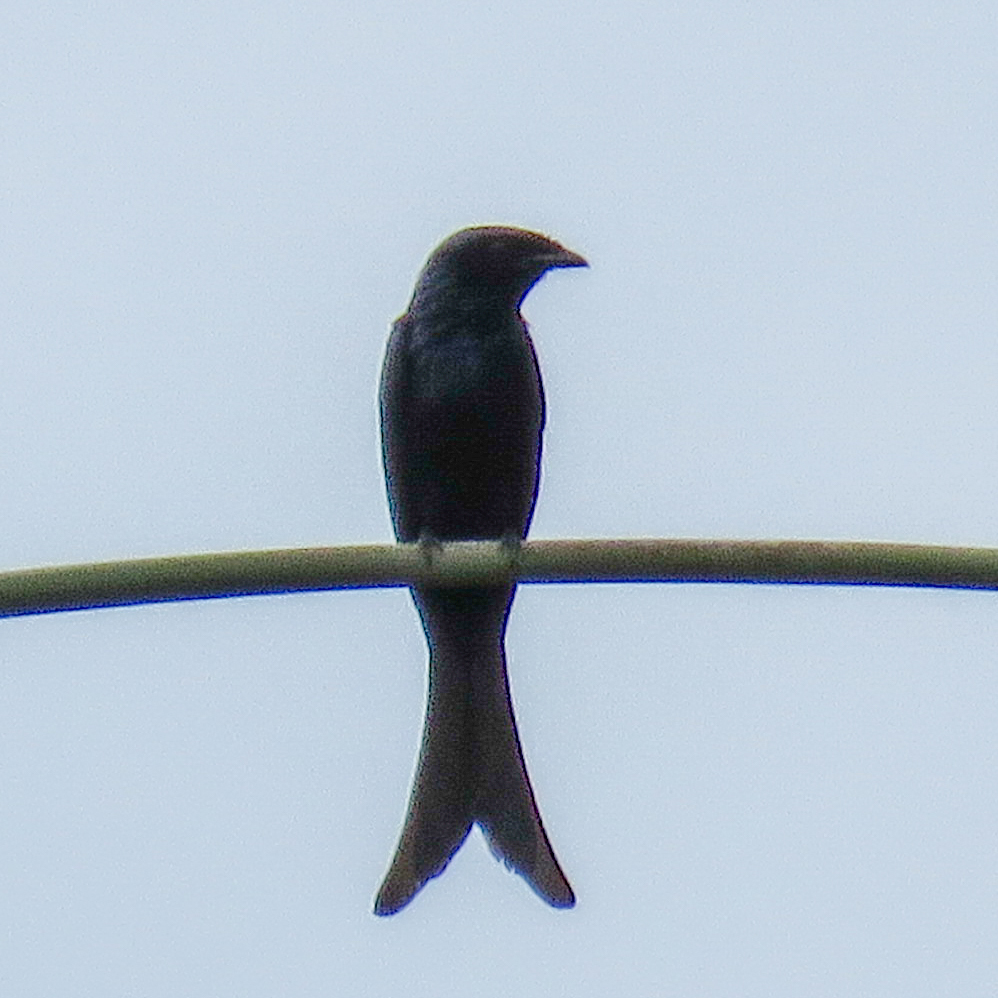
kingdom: Animalia
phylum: Chordata
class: Aves
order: Passeriformes
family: Dicruridae
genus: Dicrurus
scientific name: Dicrurus macrocercus
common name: Black drongo
